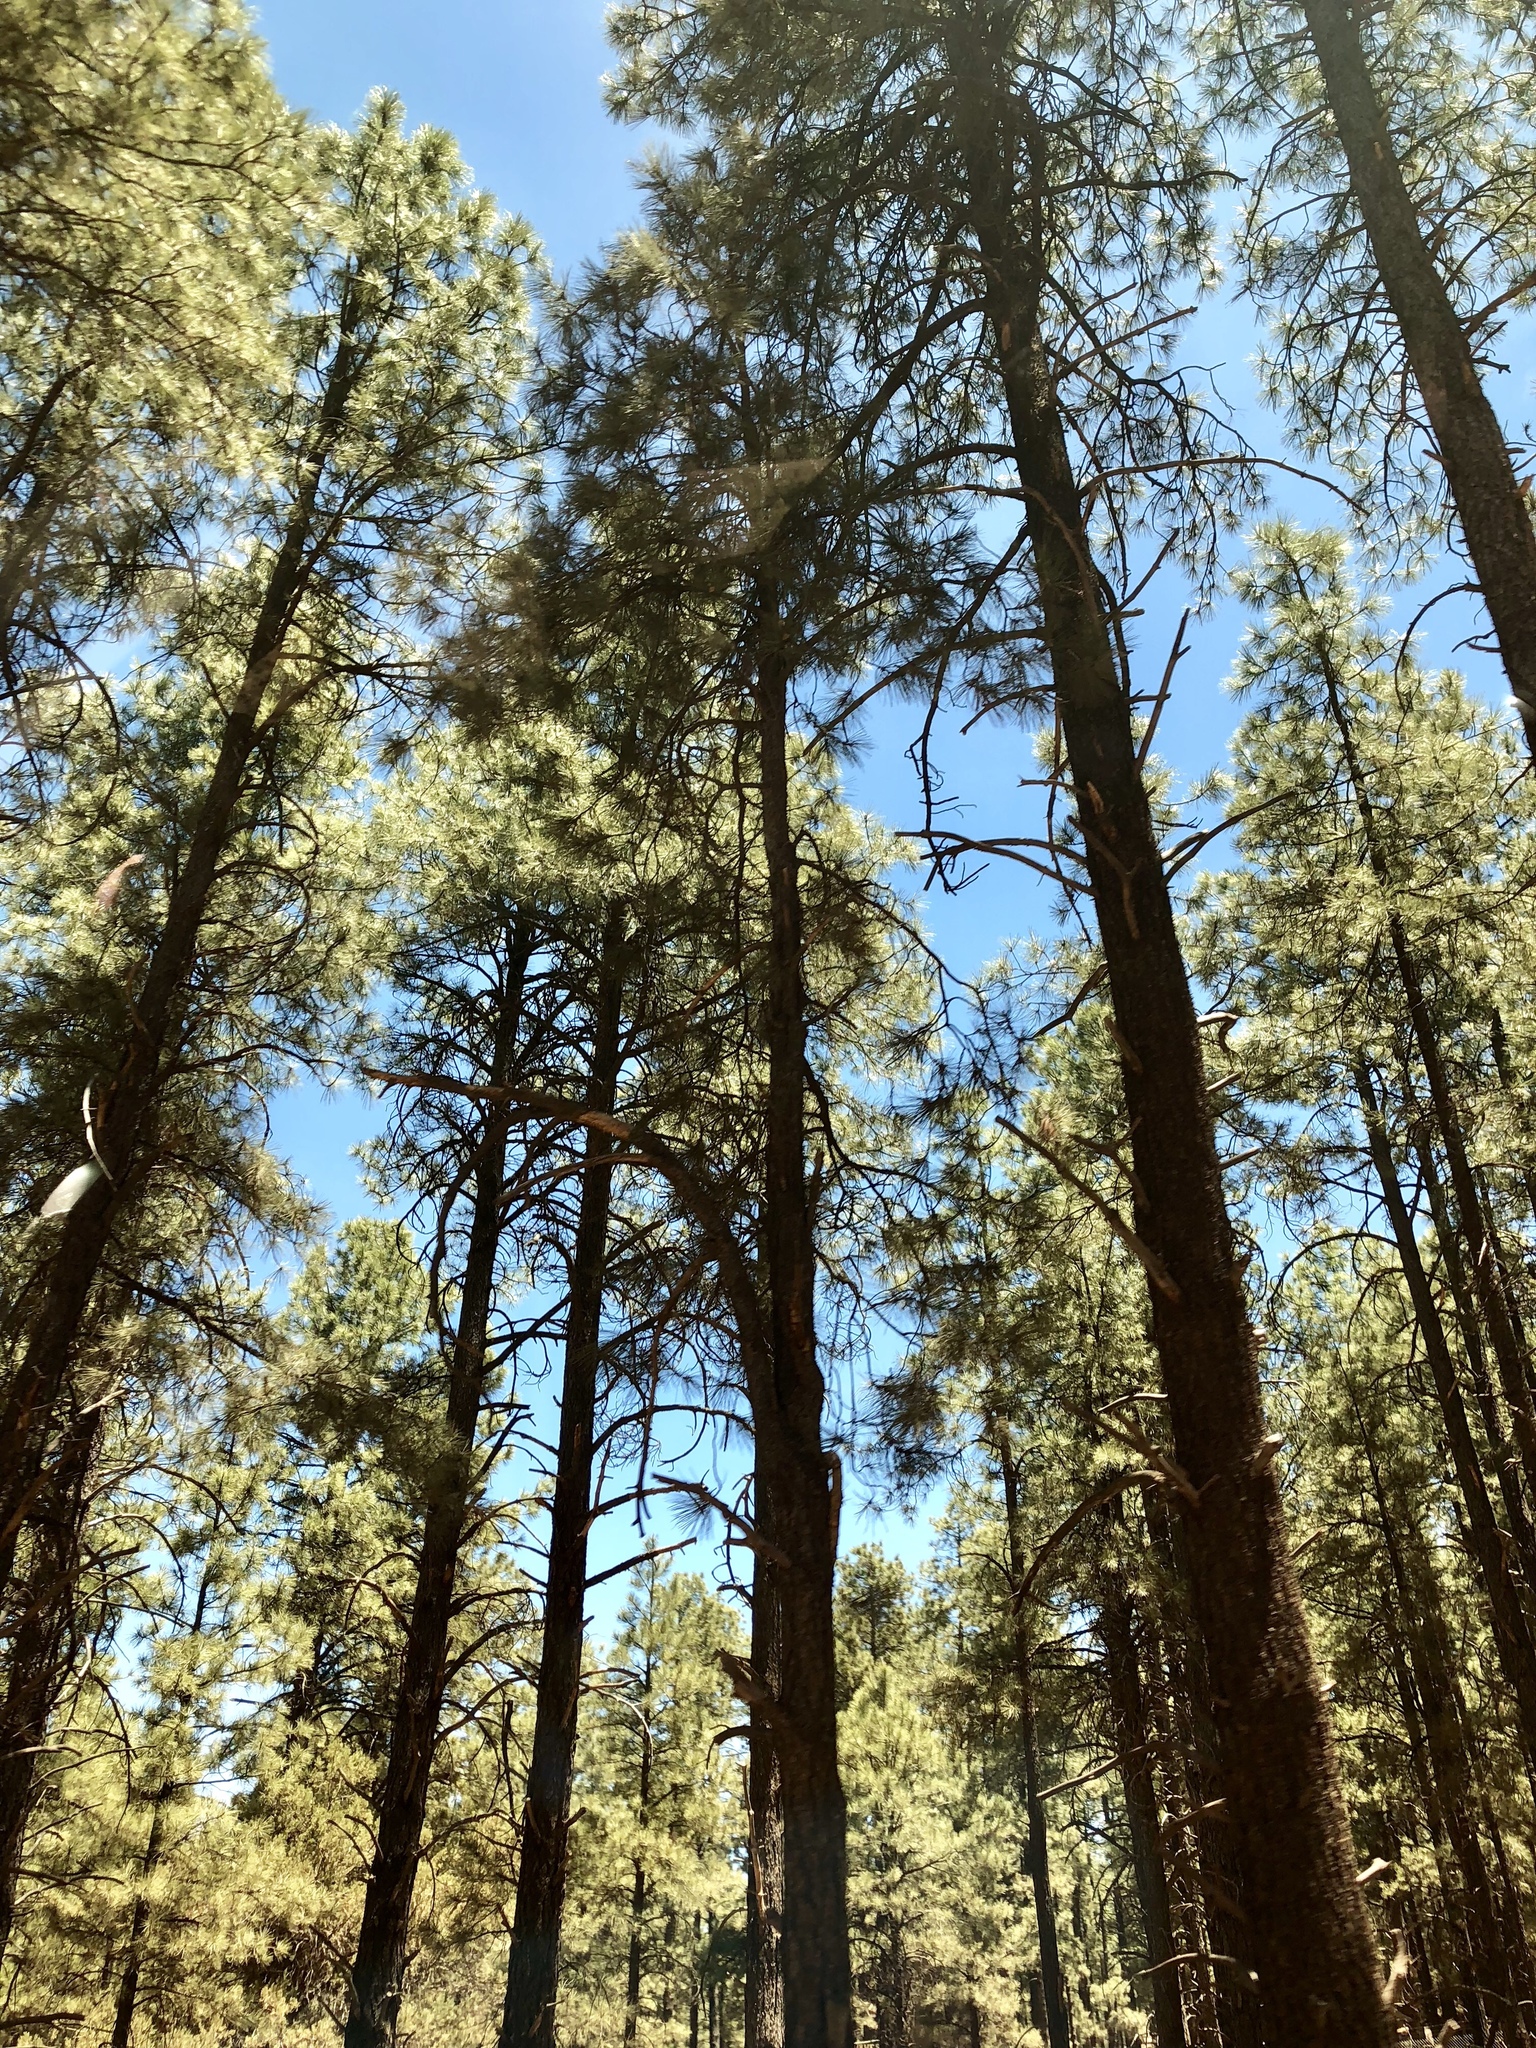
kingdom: Plantae
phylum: Tracheophyta
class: Pinopsida
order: Pinales
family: Pinaceae
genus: Pinus
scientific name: Pinus ponderosa
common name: Western yellow-pine
